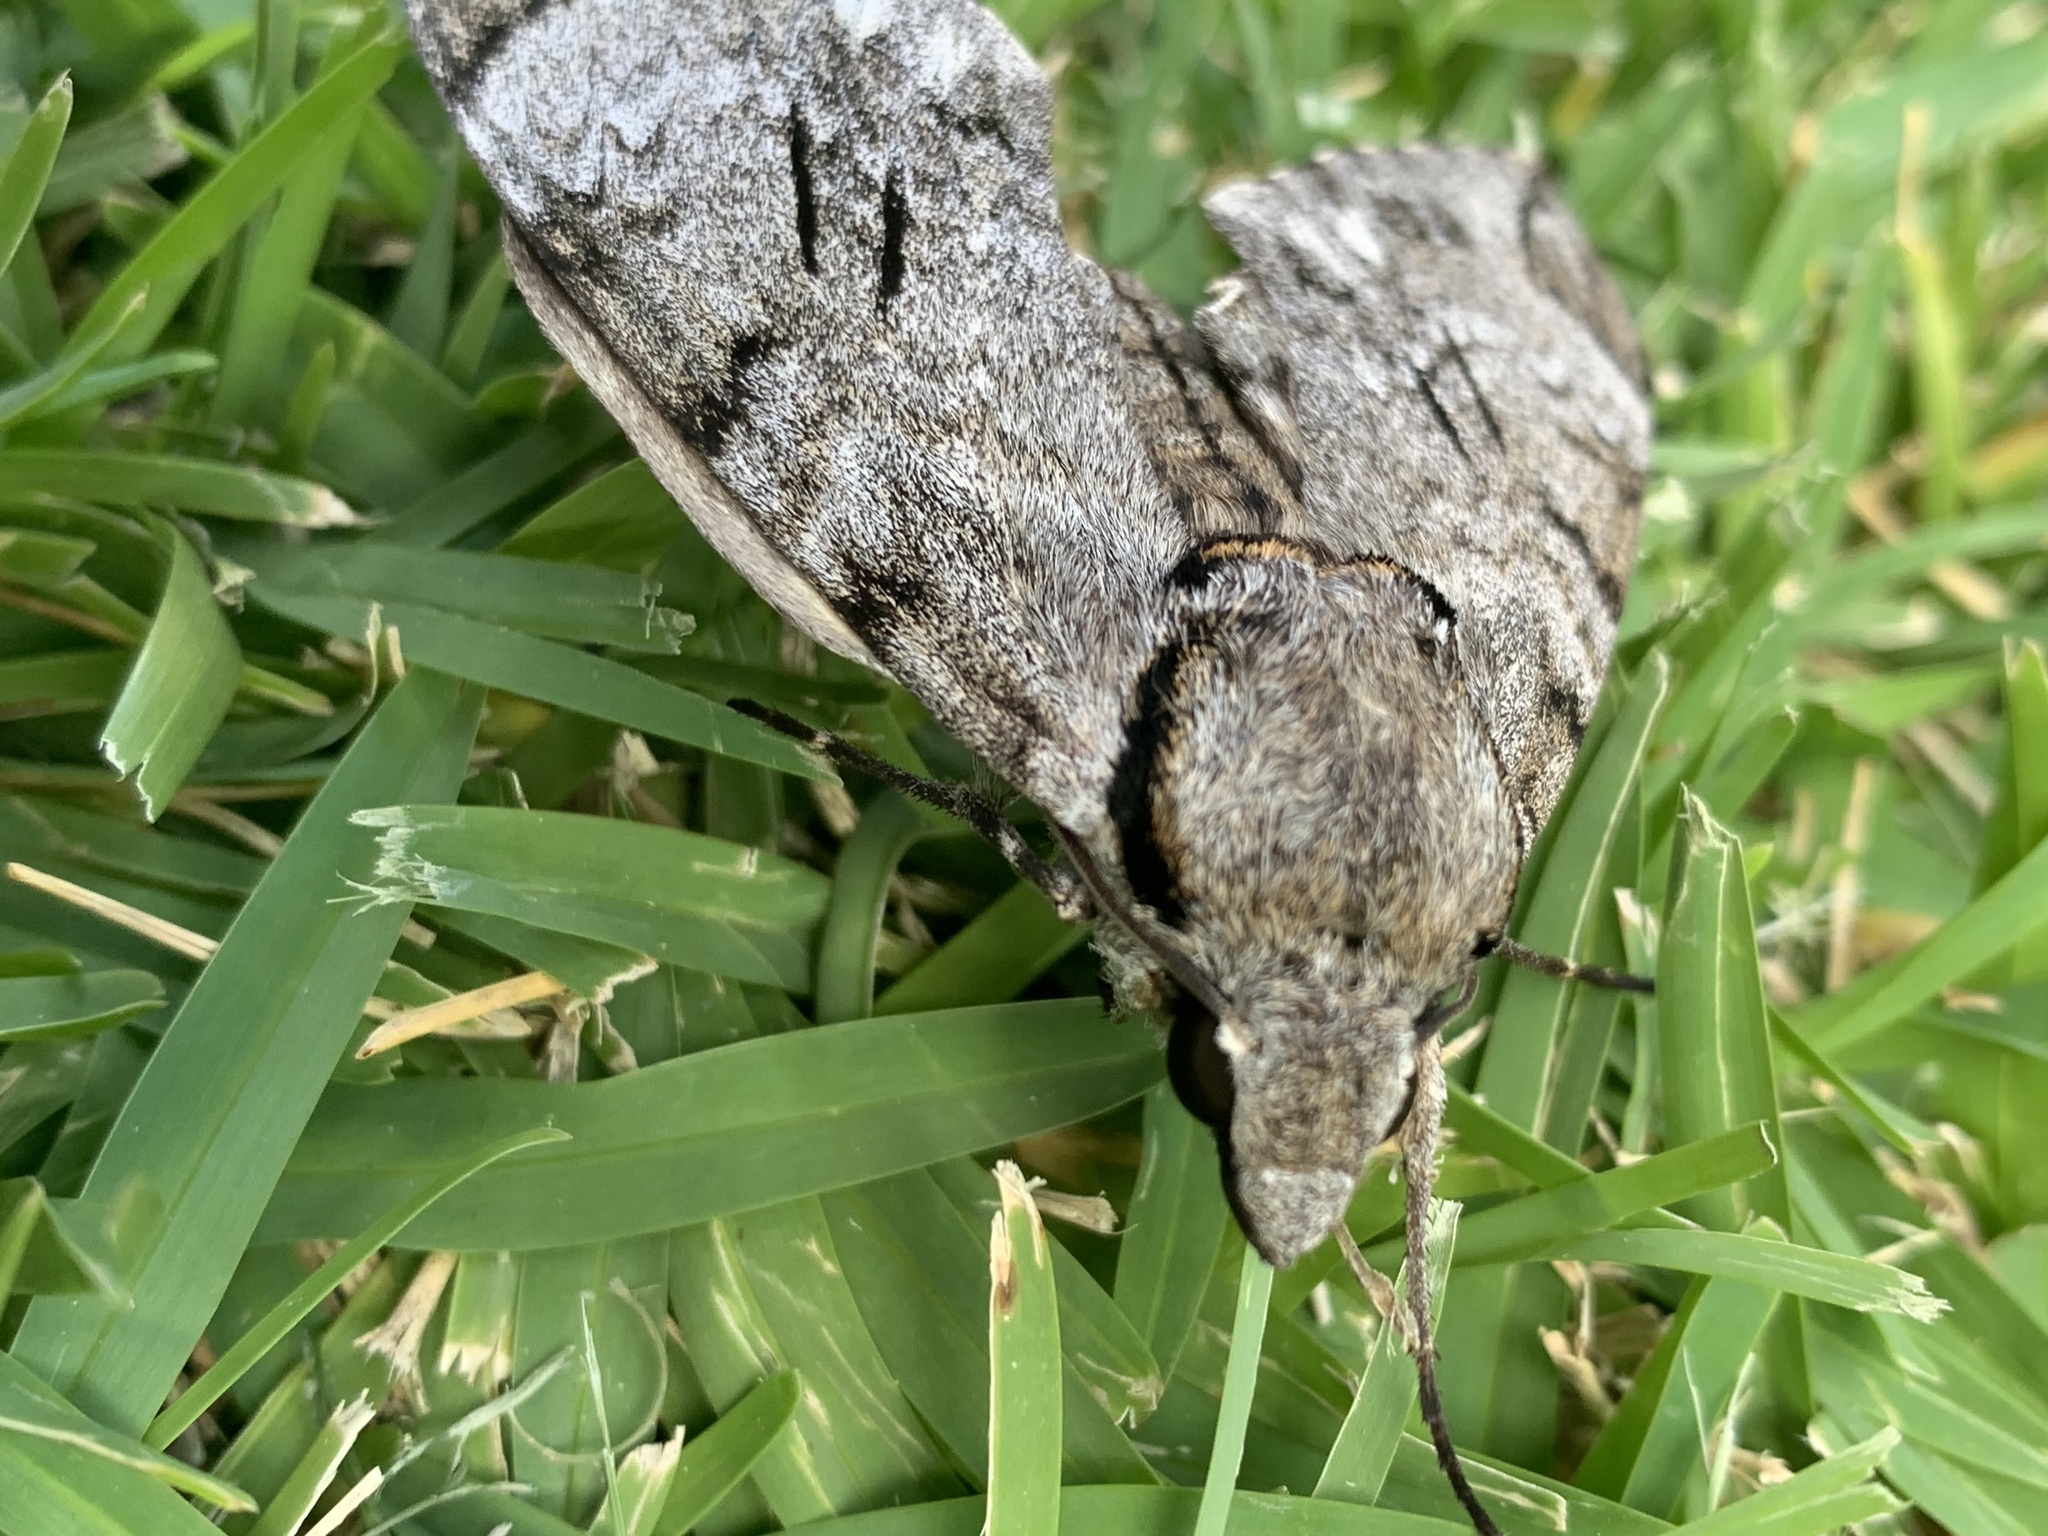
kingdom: Animalia
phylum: Arthropoda
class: Insecta
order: Lepidoptera
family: Sphingidae
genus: Psilogramma
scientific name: Psilogramma casuarinae
